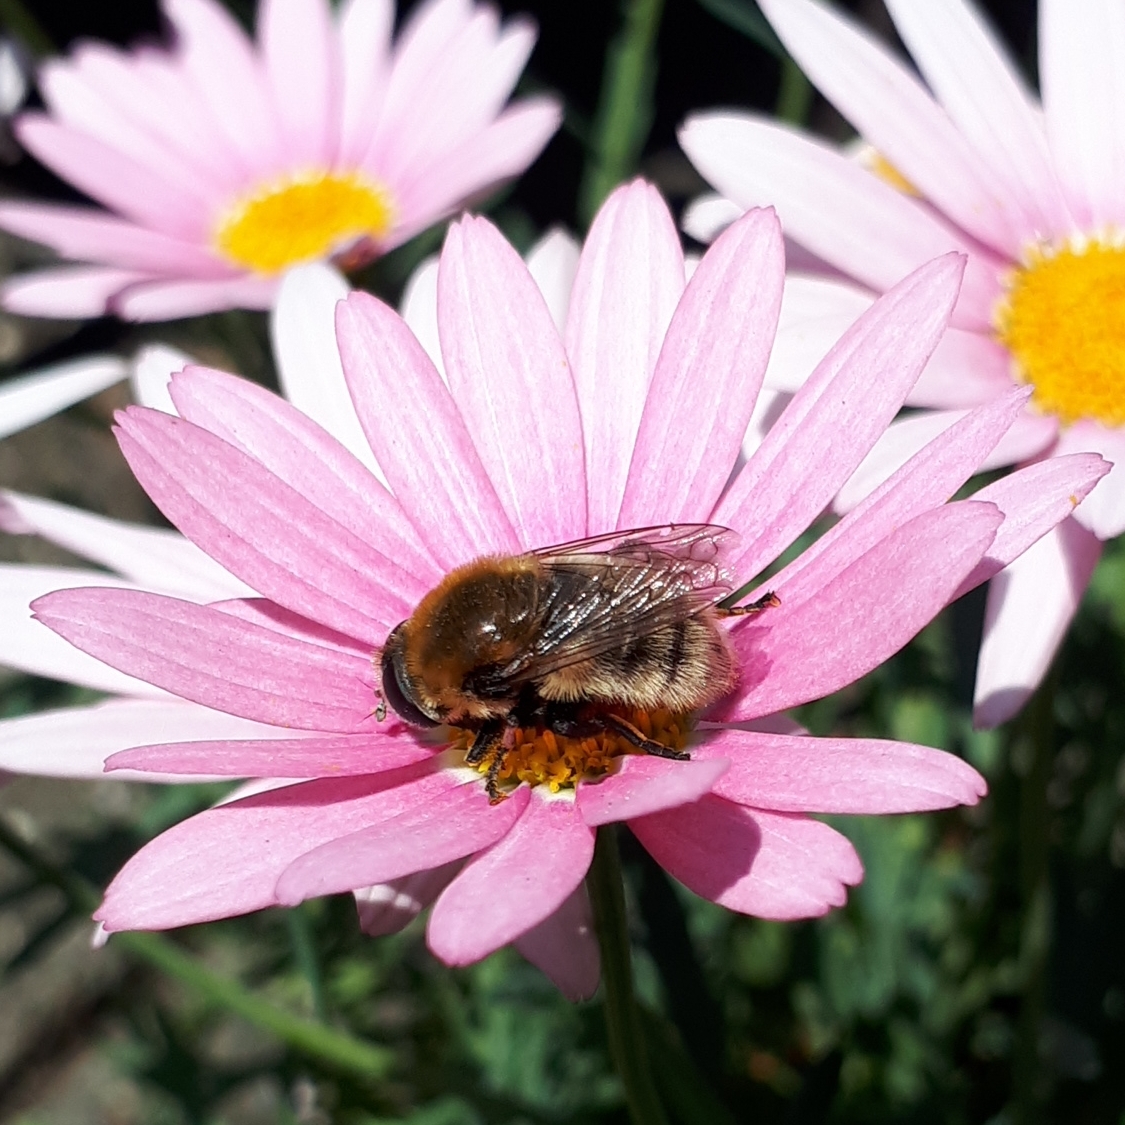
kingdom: Animalia
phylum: Arthropoda
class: Insecta
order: Diptera
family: Syrphidae
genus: Merodon
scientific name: Merodon equestris
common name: Greater bulb-fly
